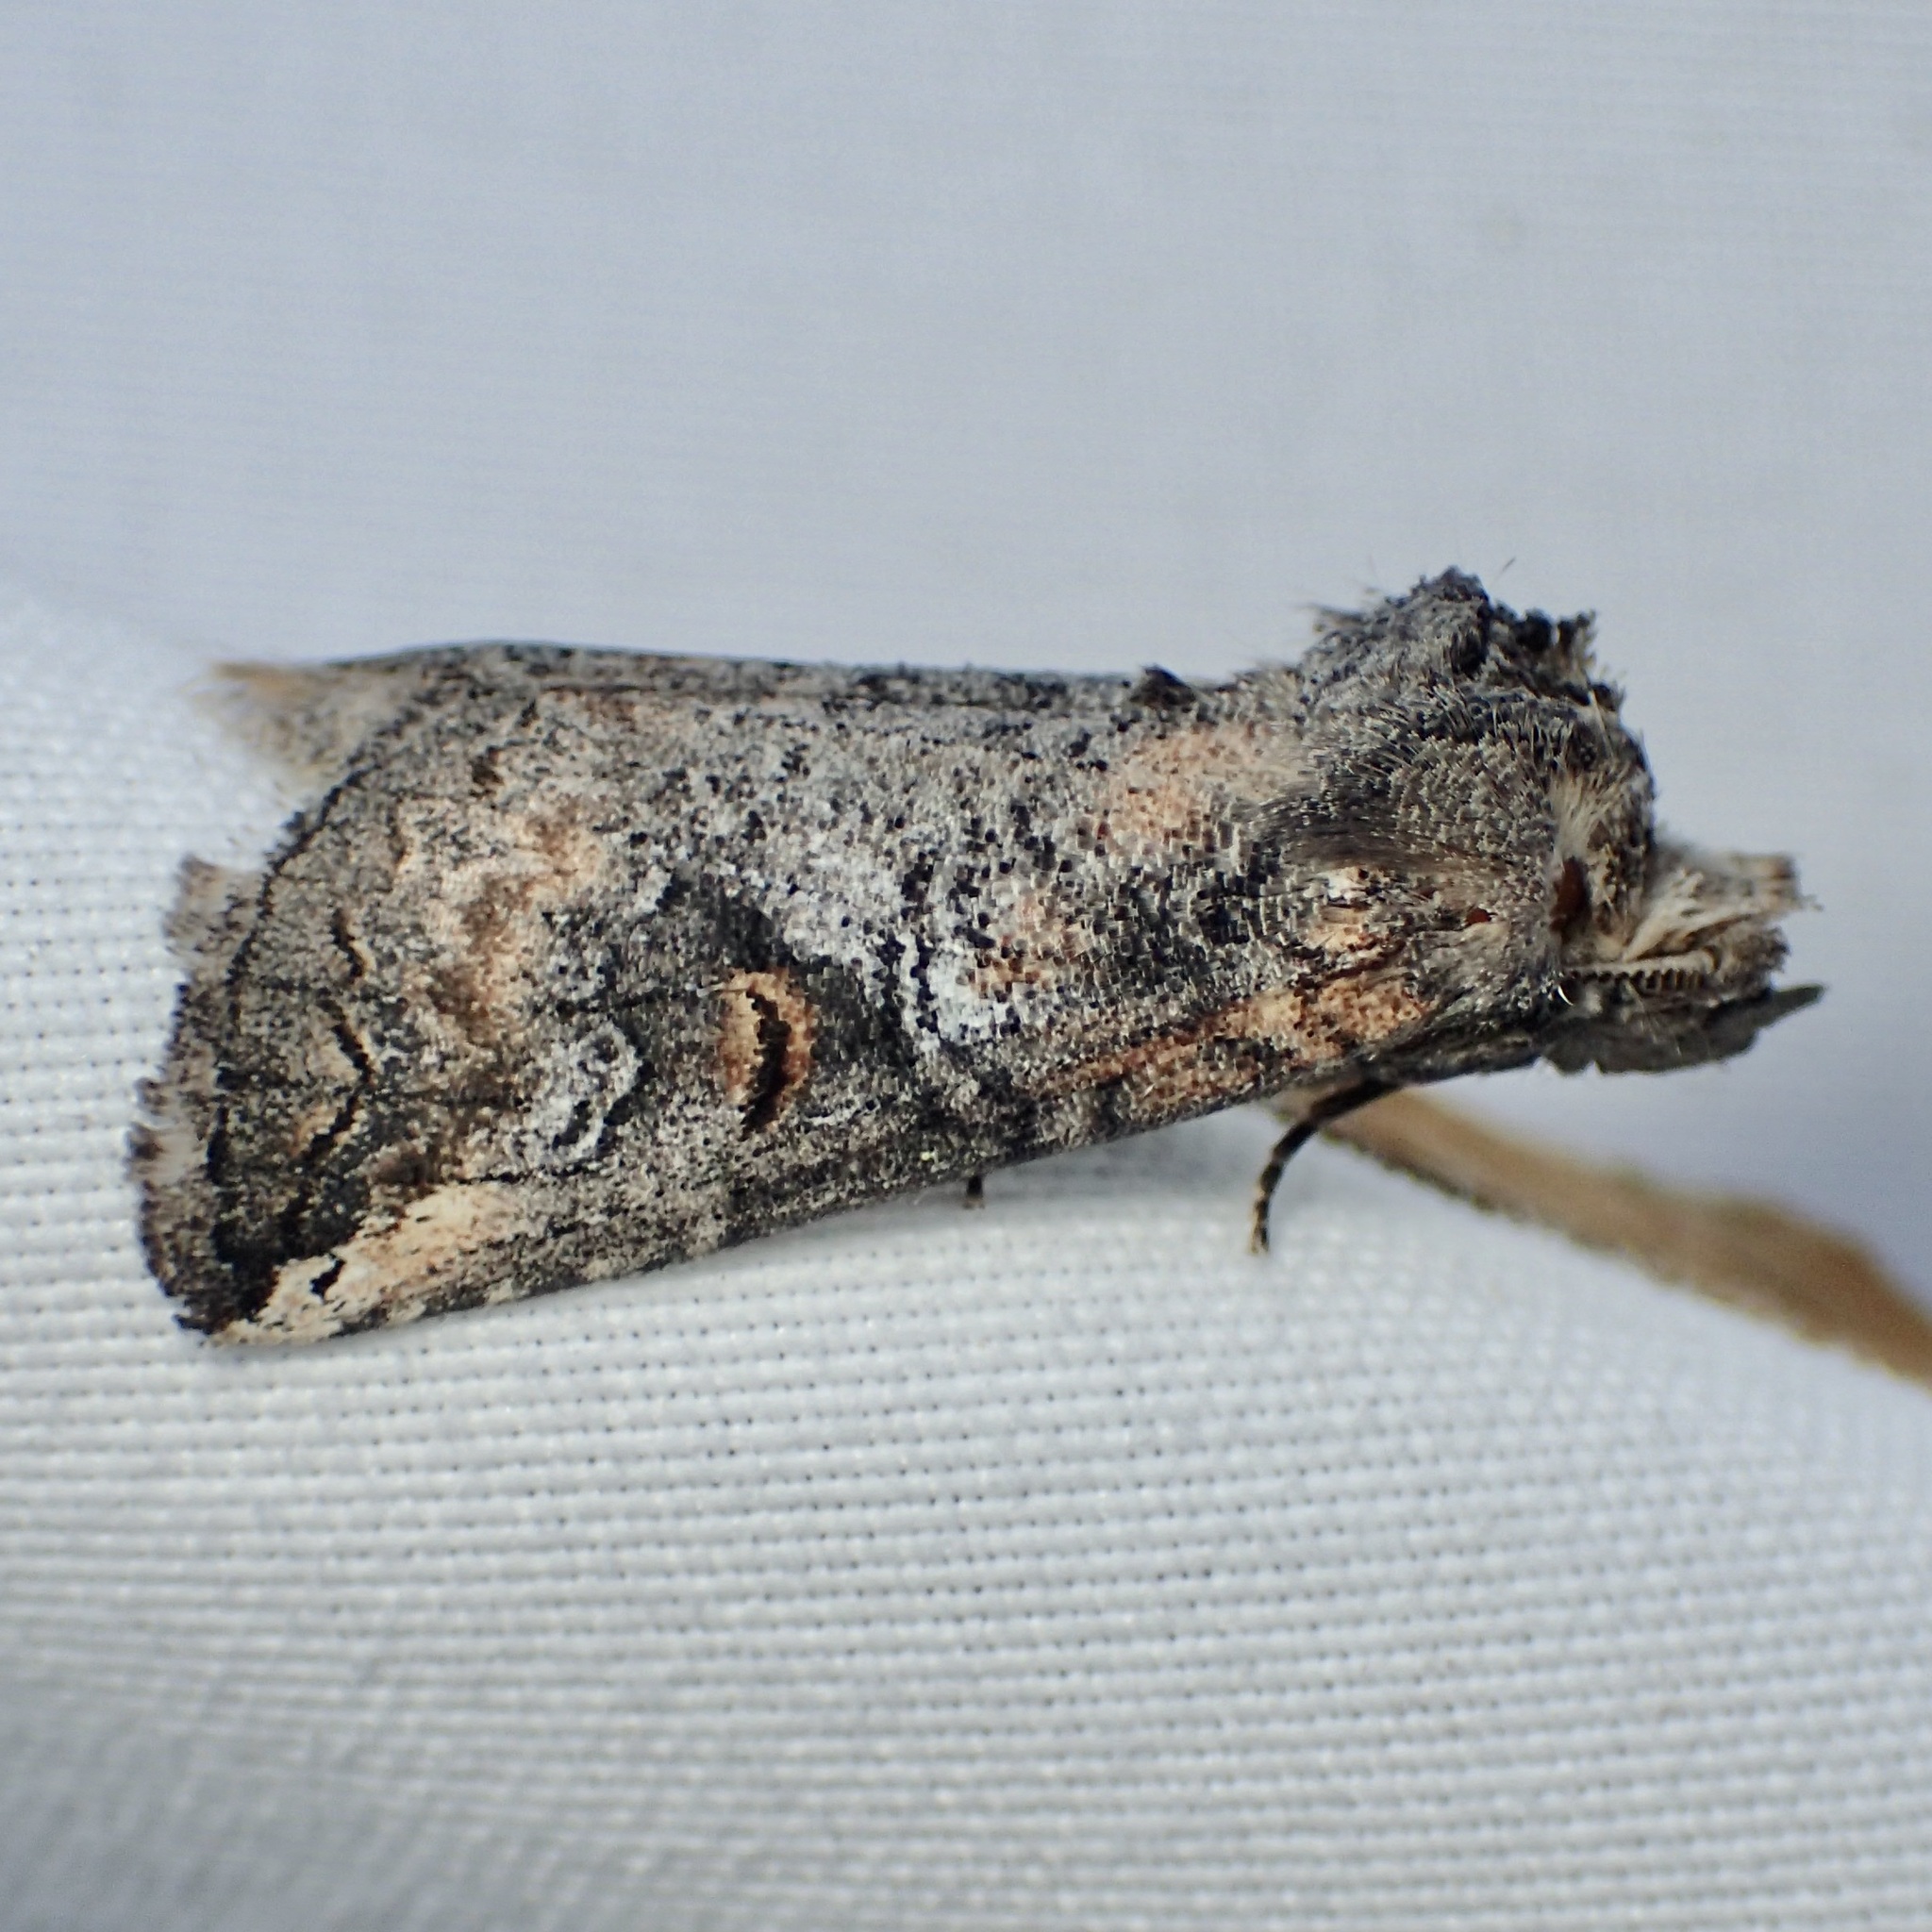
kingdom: Animalia
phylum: Arthropoda
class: Insecta
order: Lepidoptera
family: Notodontidae
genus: Elasmia
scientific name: Elasmia packardii
